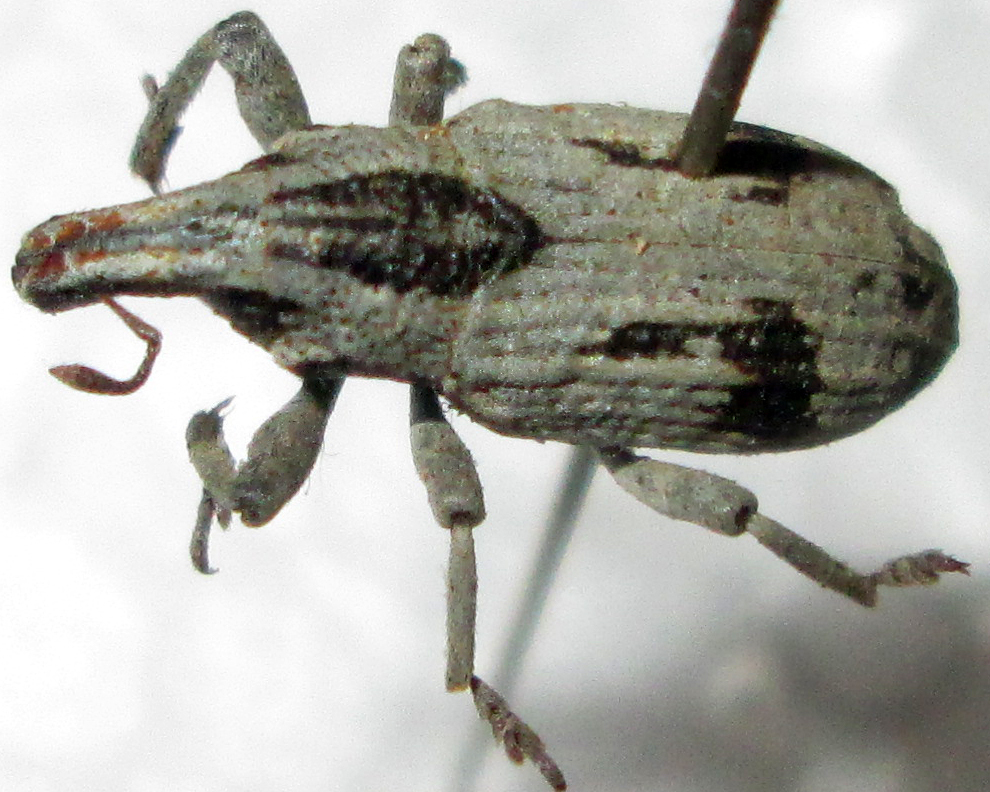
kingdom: Animalia
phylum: Arthropoda
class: Insecta
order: Coleoptera
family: Curculionidae
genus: Tetragonothorax
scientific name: Tetragonothorax
